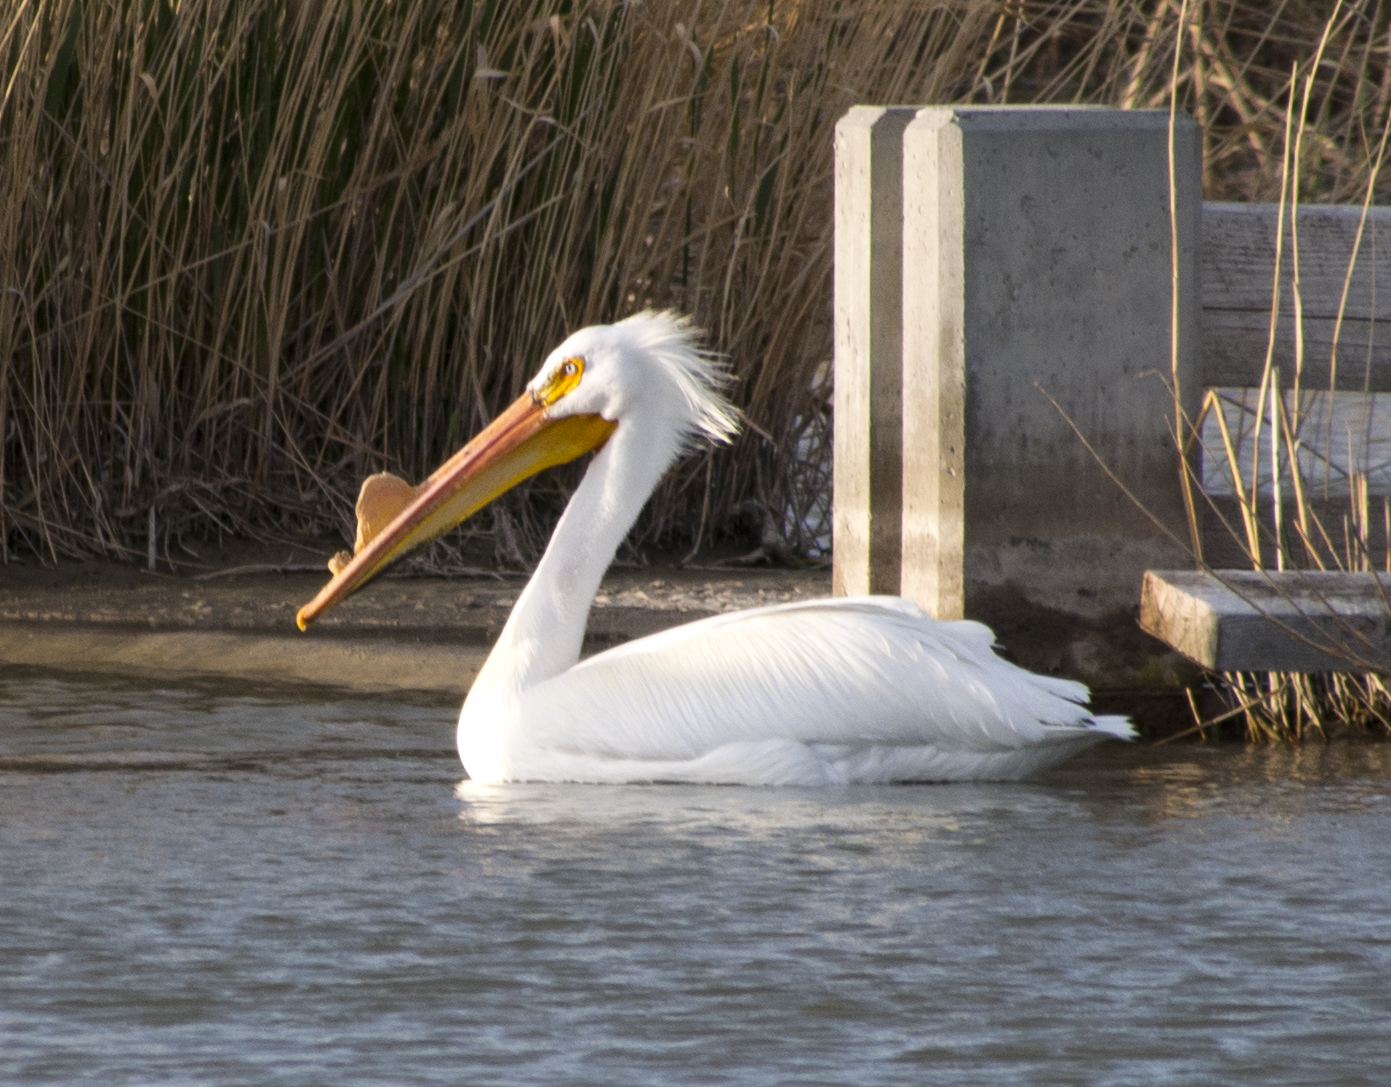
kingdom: Animalia
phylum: Chordata
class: Aves
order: Pelecaniformes
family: Pelecanidae
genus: Pelecanus
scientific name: Pelecanus erythrorhynchos
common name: American white pelican
